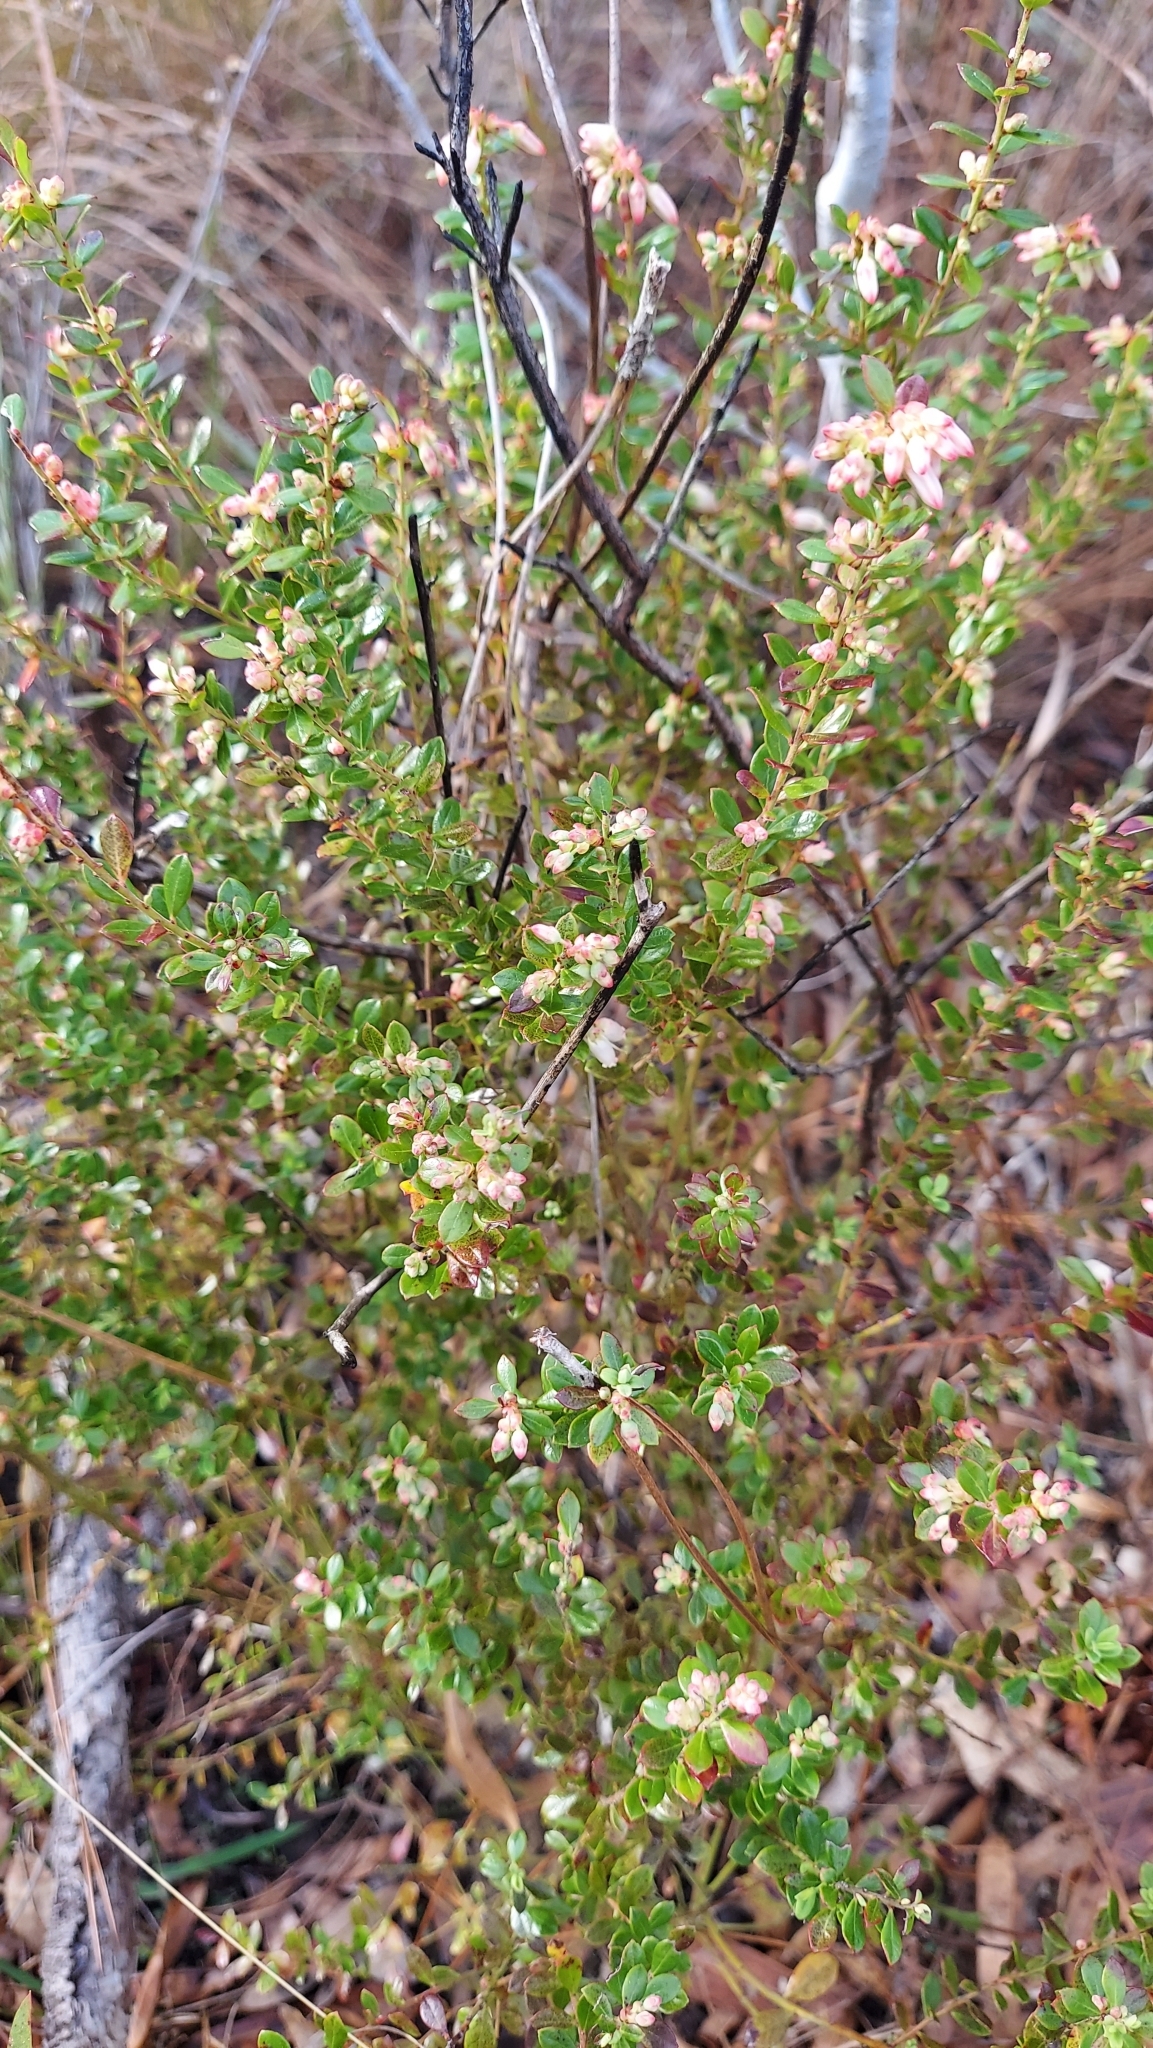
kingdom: Plantae
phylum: Tracheophyta
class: Magnoliopsida
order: Ericales
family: Ericaceae
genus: Vaccinium
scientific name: Vaccinium myrsinites
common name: Evergreen blueberry
